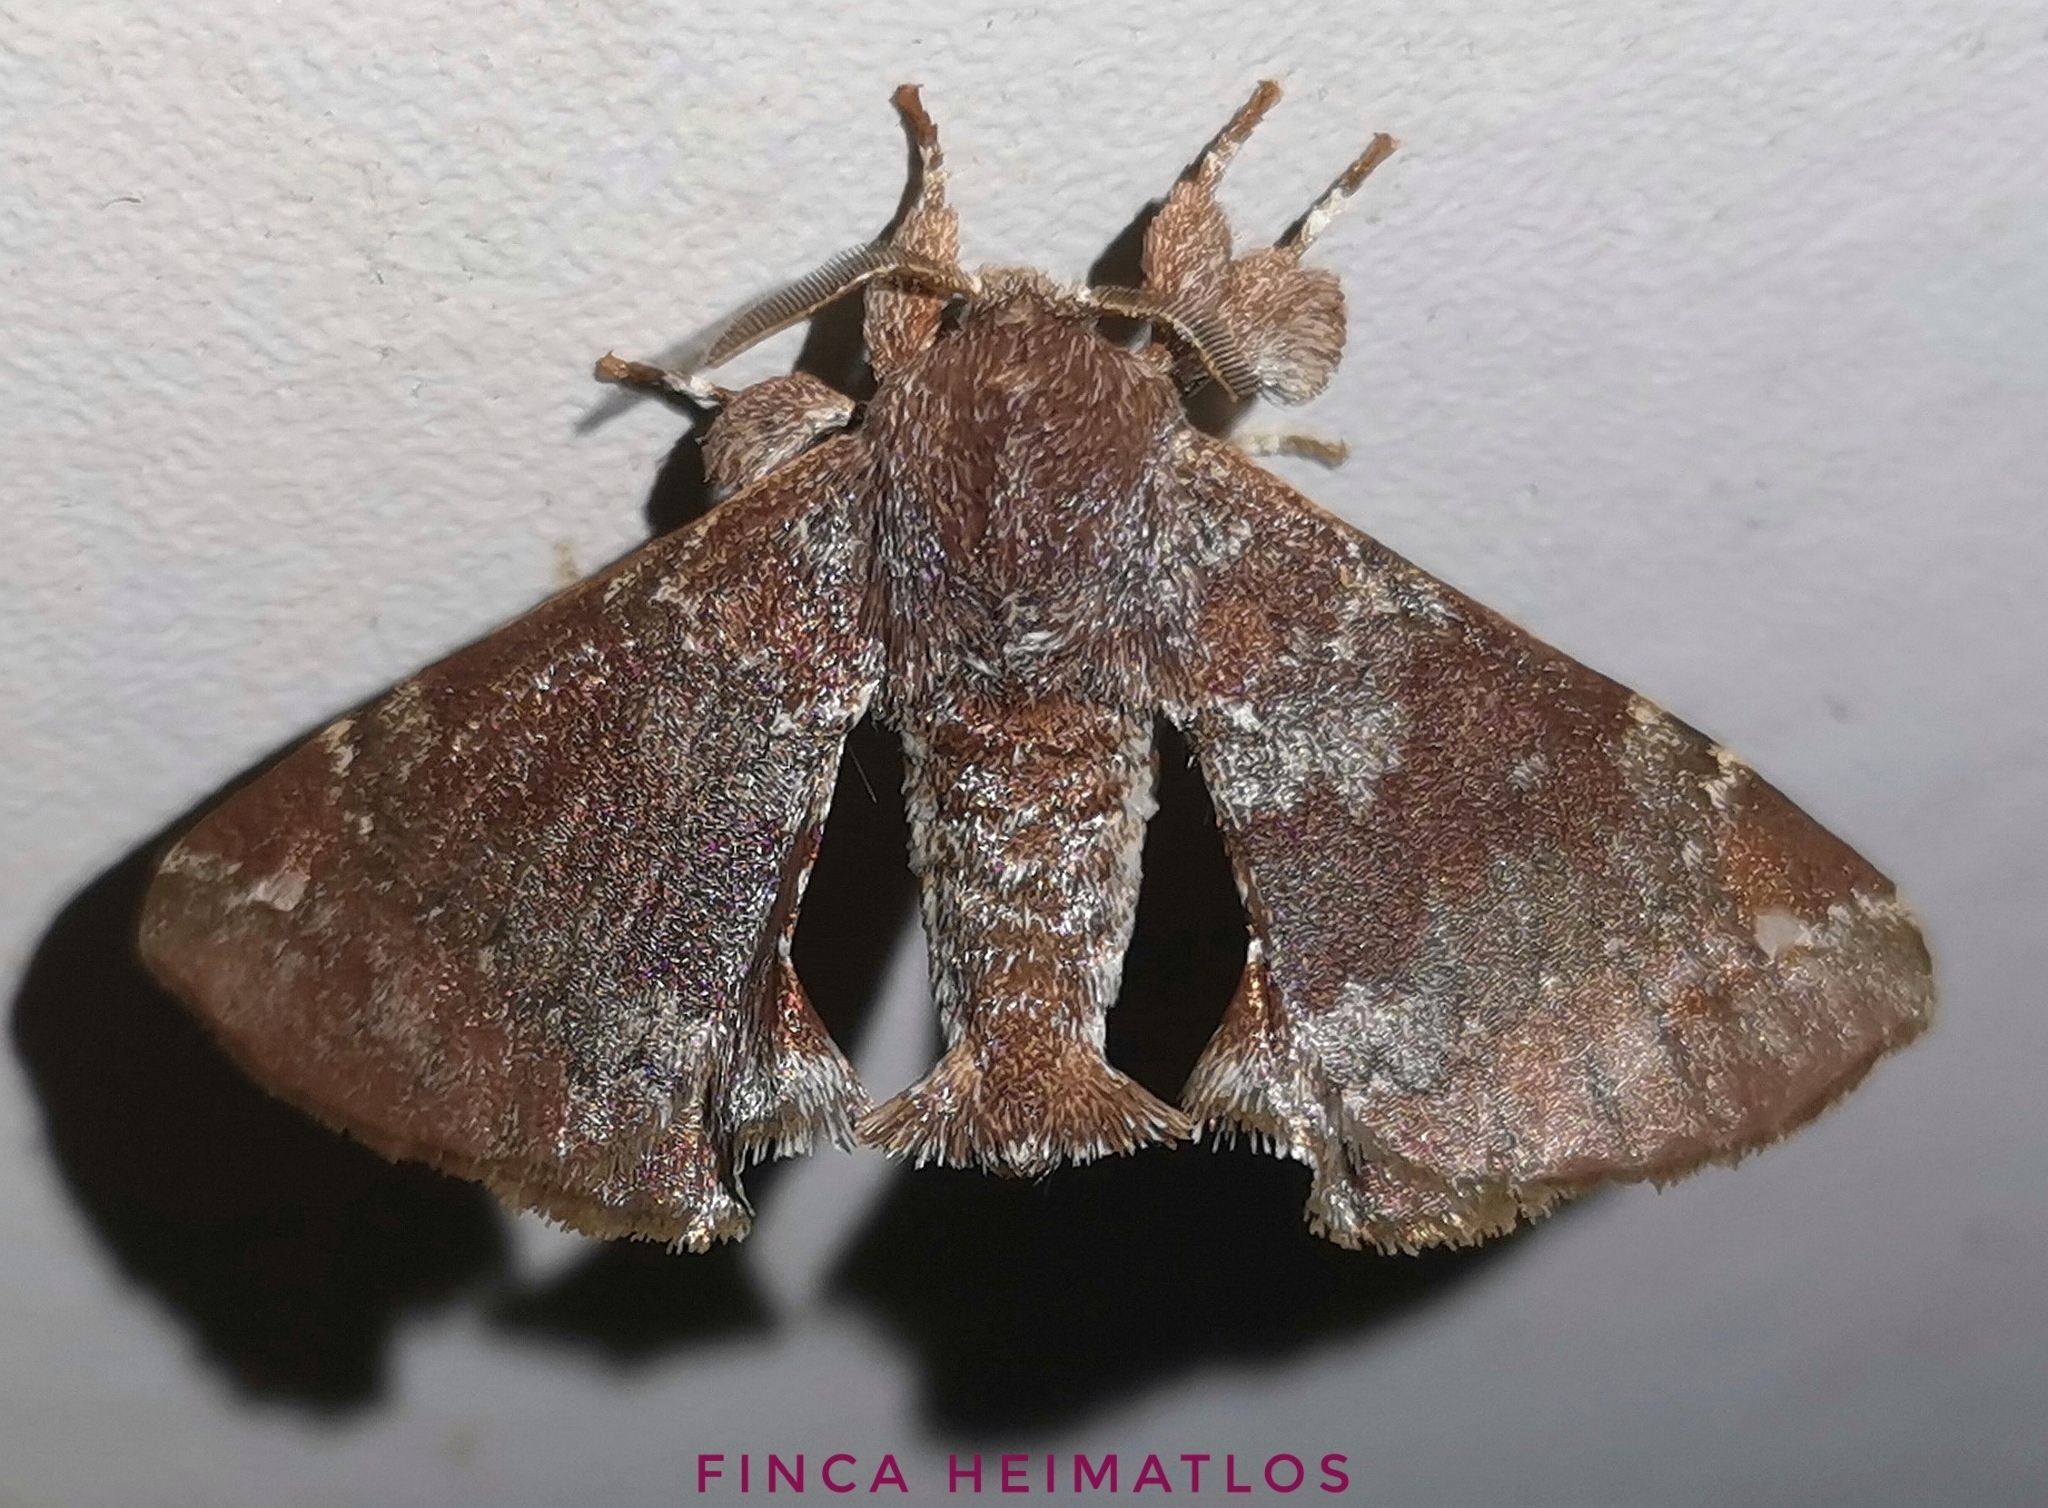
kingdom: Animalia
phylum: Arthropoda
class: Insecta
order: Lepidoptera
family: Apatelodidae
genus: Hygrochroa
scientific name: Hygrochroa nina
